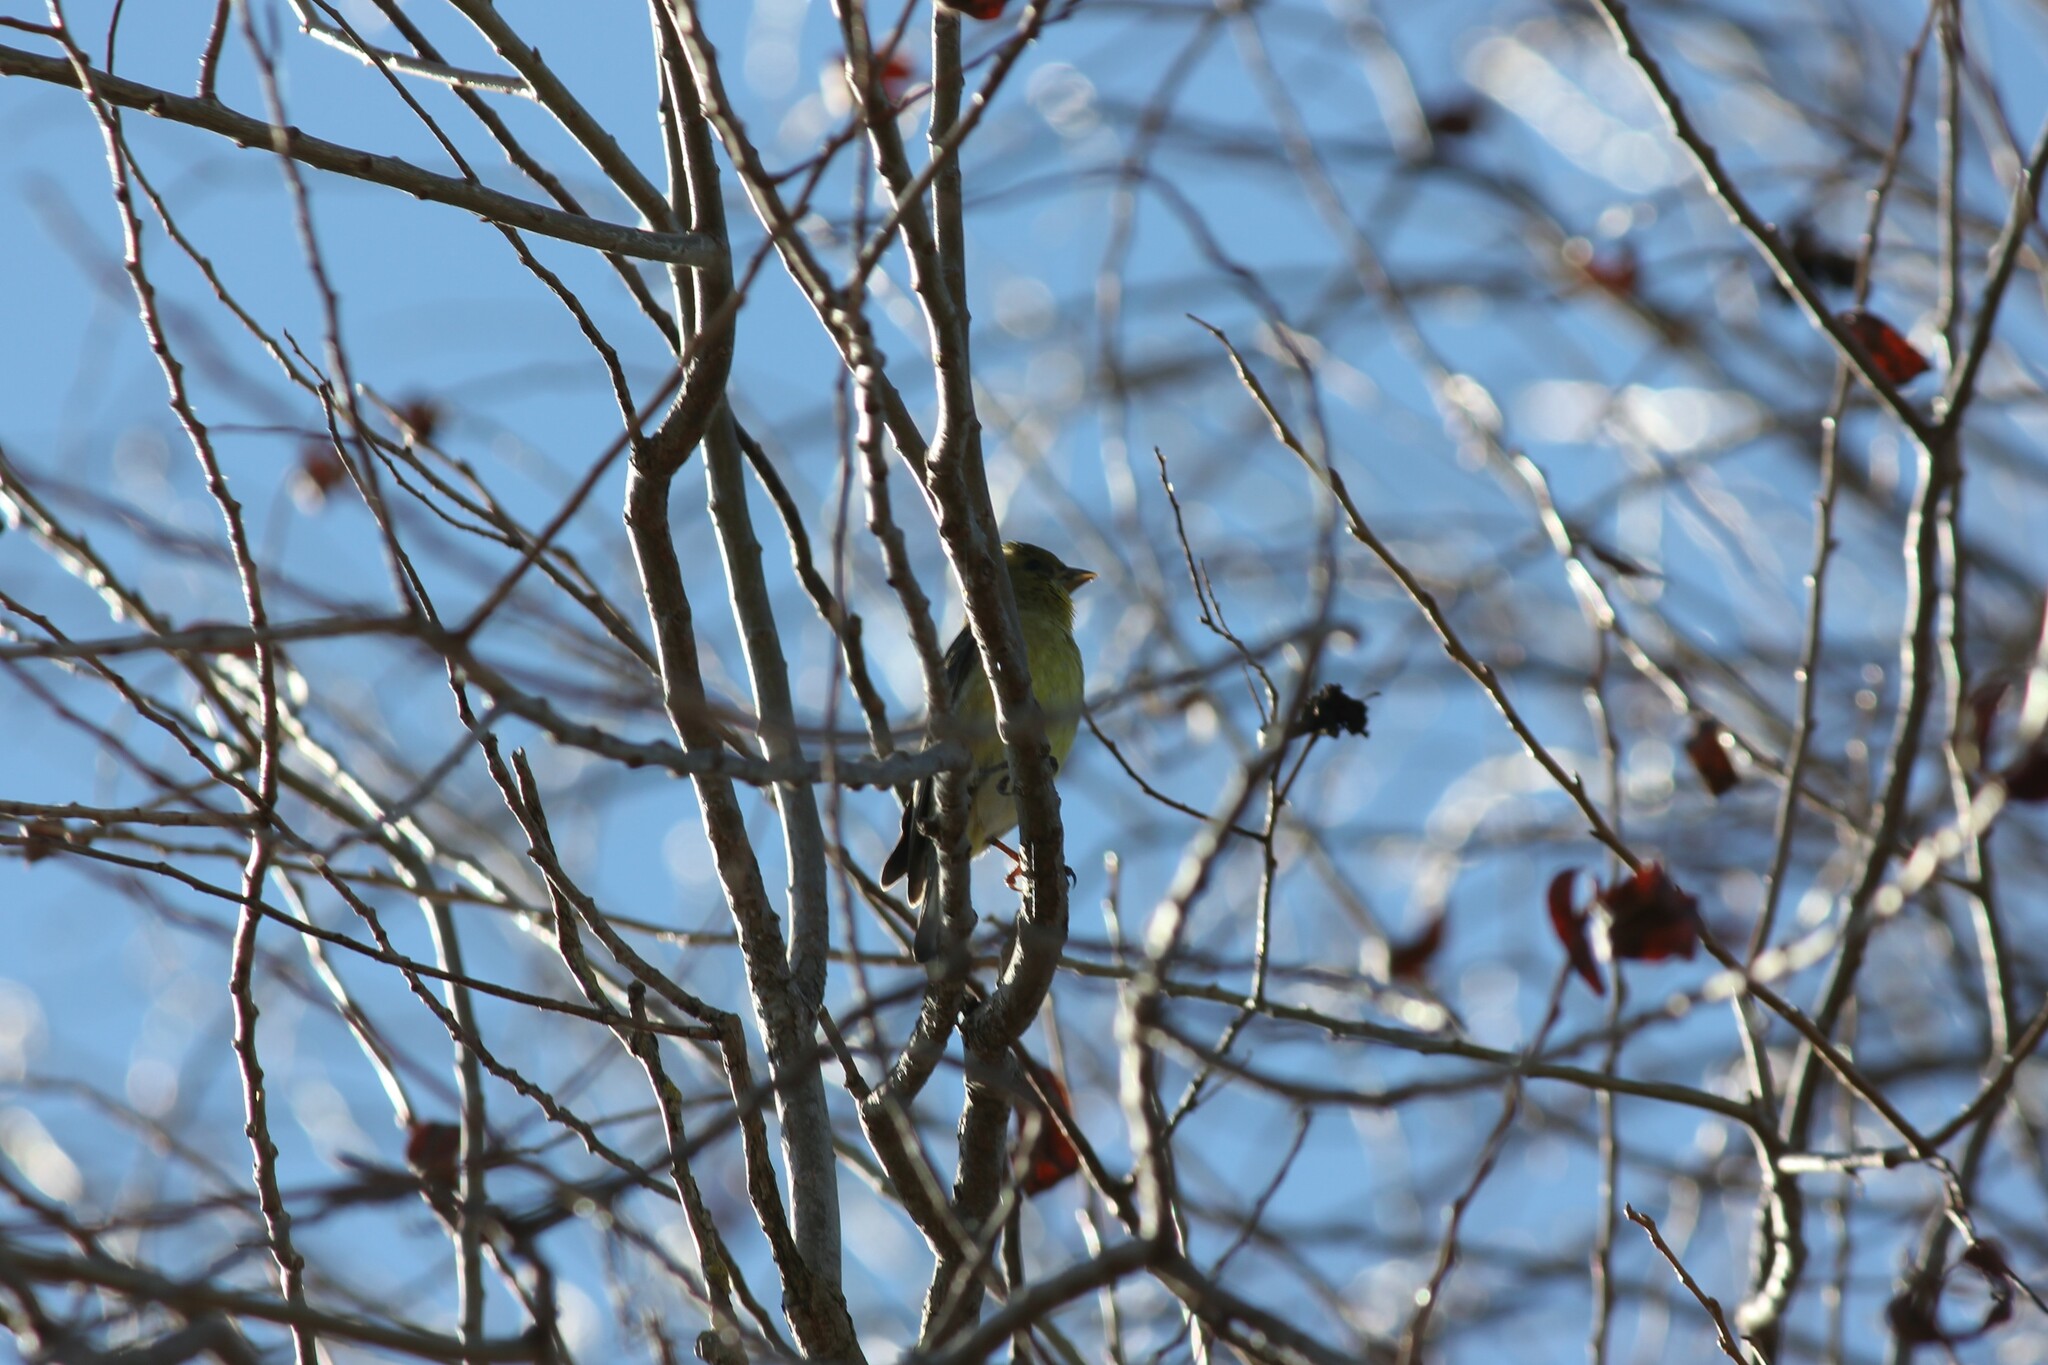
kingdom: Animalia
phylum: Chordata
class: Aves
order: Passeriformes
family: Fringillidae
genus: Spinus
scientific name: Spinus psaltria
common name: Lesser goldfinch
